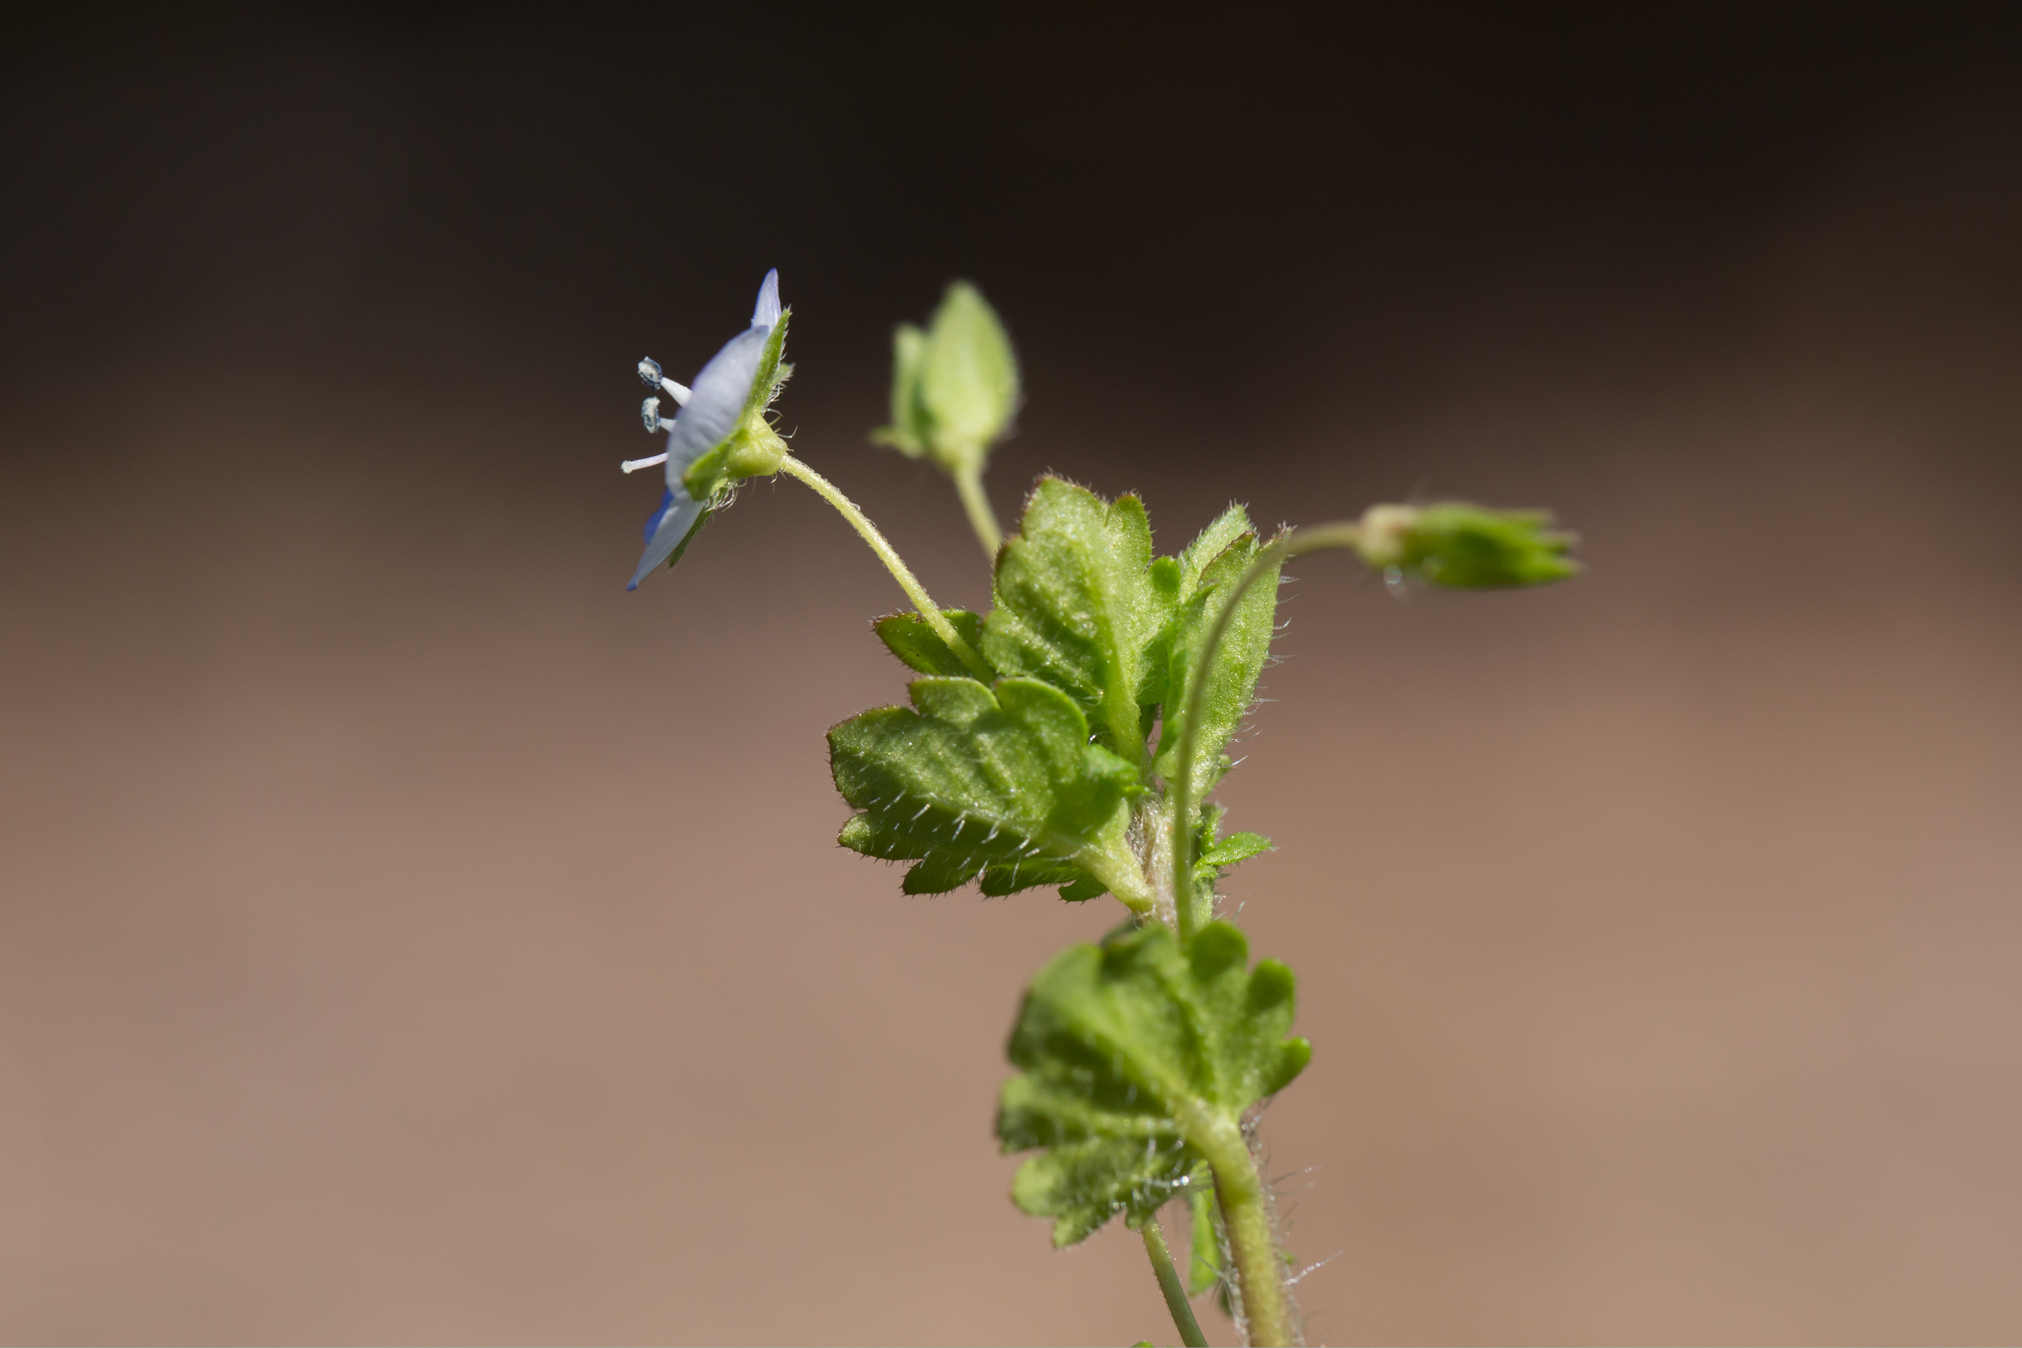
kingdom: Plantae
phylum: Tracheophyta
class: Magnoliopsida
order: Lamiales
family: Plantaginaceae
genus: Veronica
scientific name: Veronica persica
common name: Common field-speedwell
